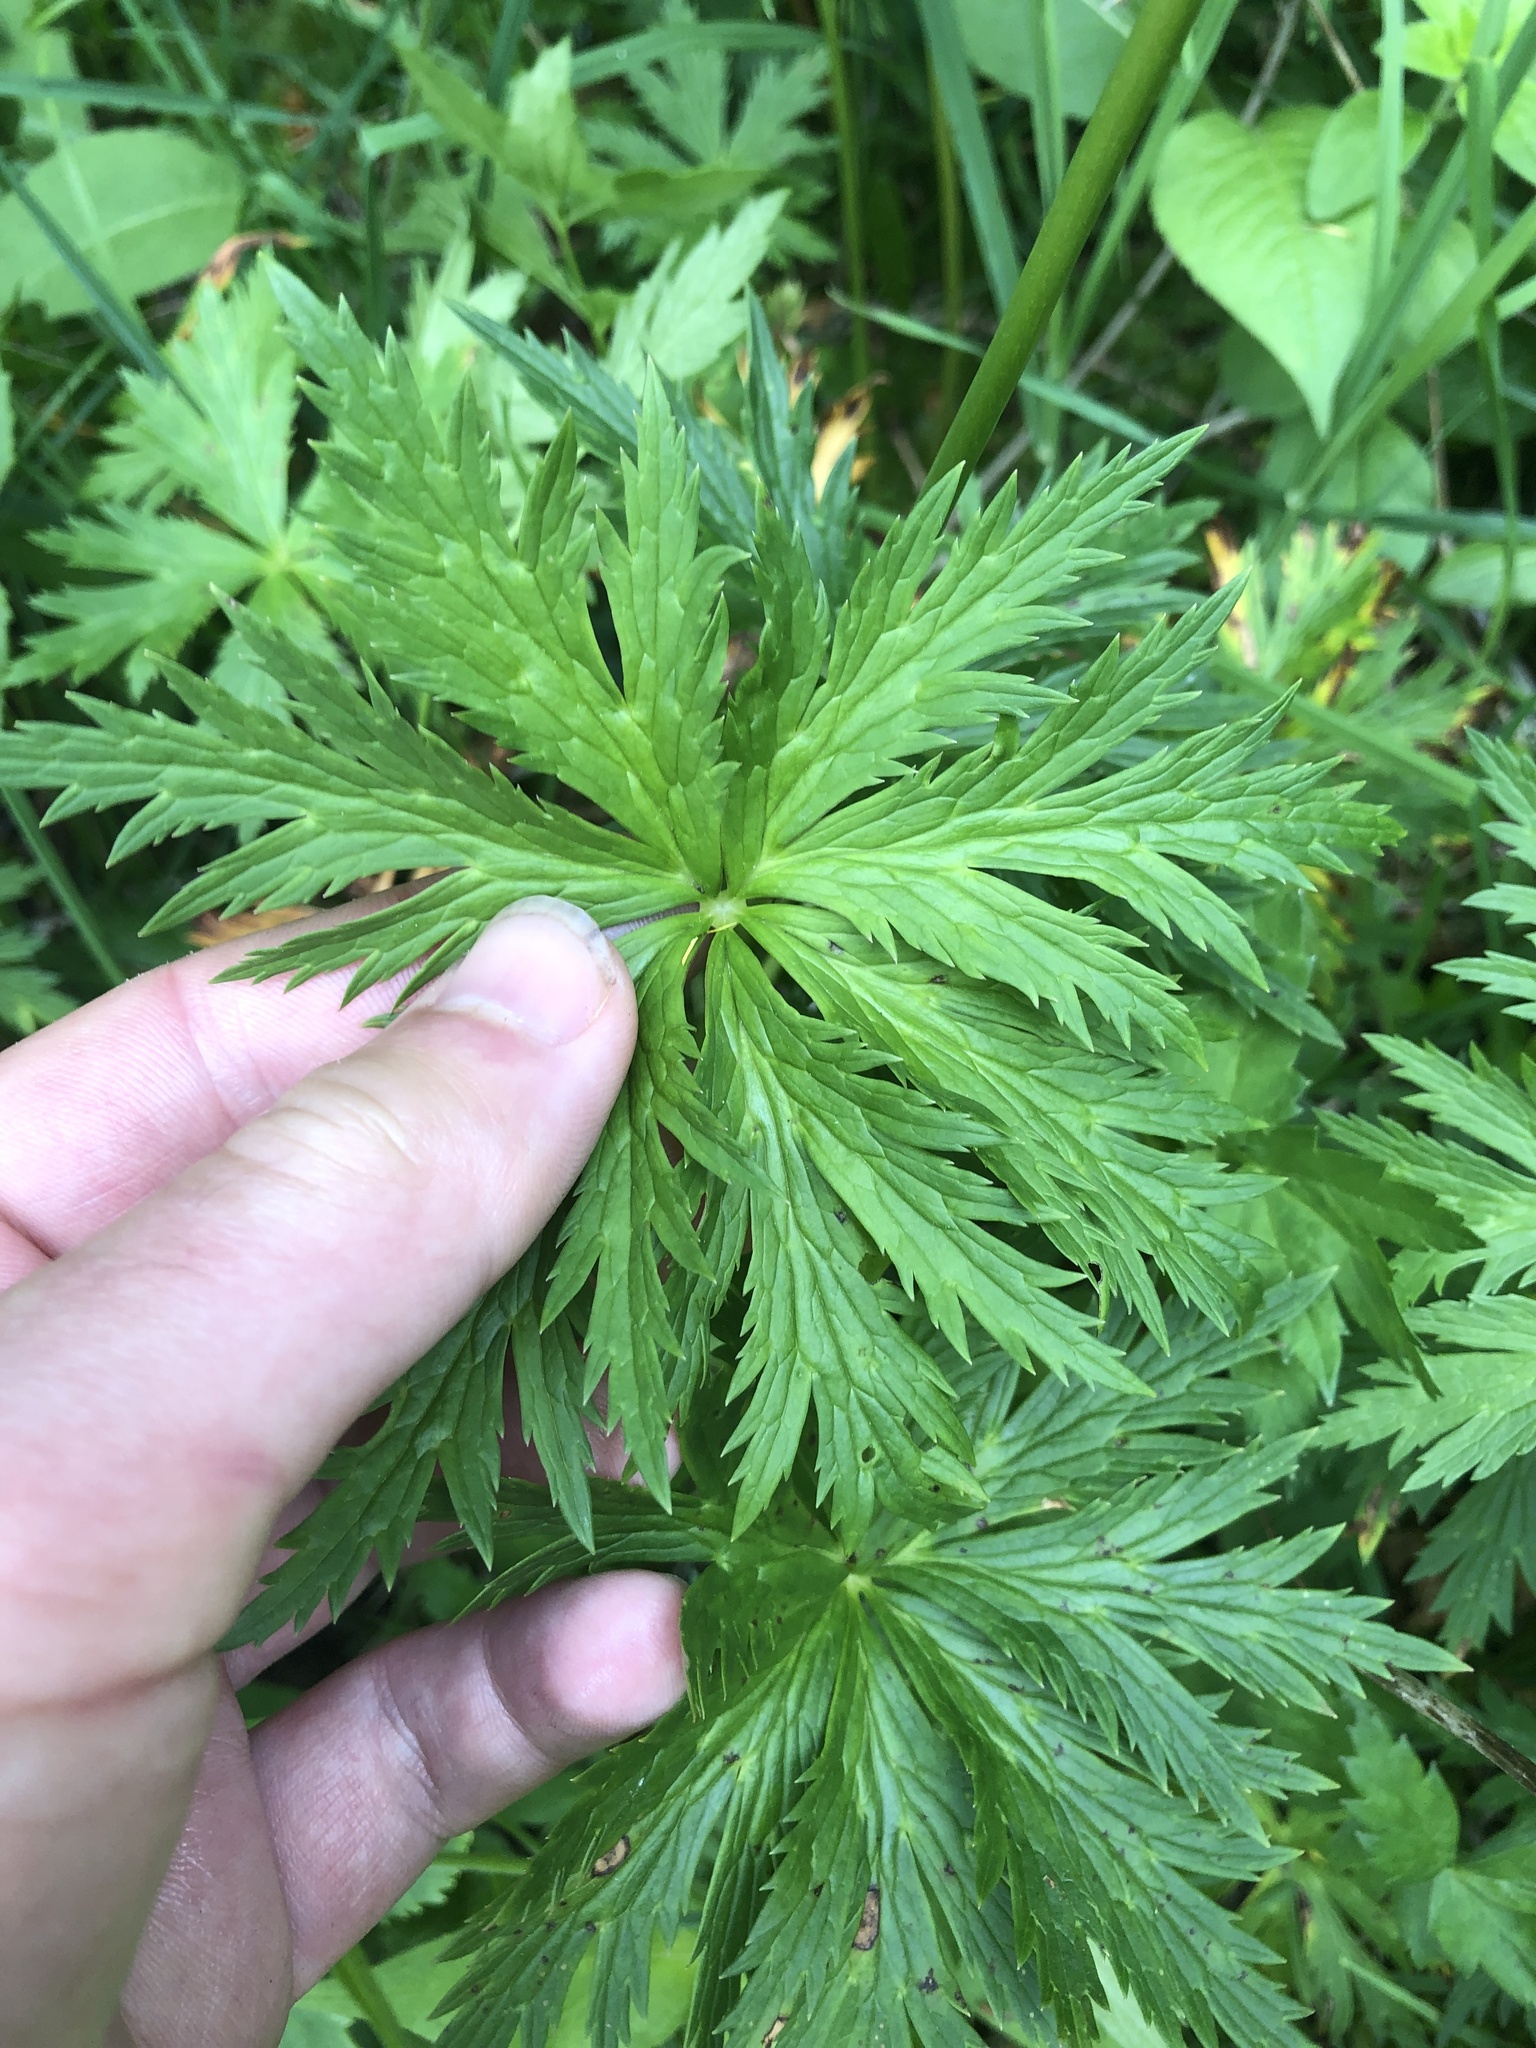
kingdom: Plantae
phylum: Tracheophyta
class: Magnoliopsida
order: Ranunculales
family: Ranunculaceae
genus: Trollius
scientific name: Trollius europaeus
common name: European globeflower
